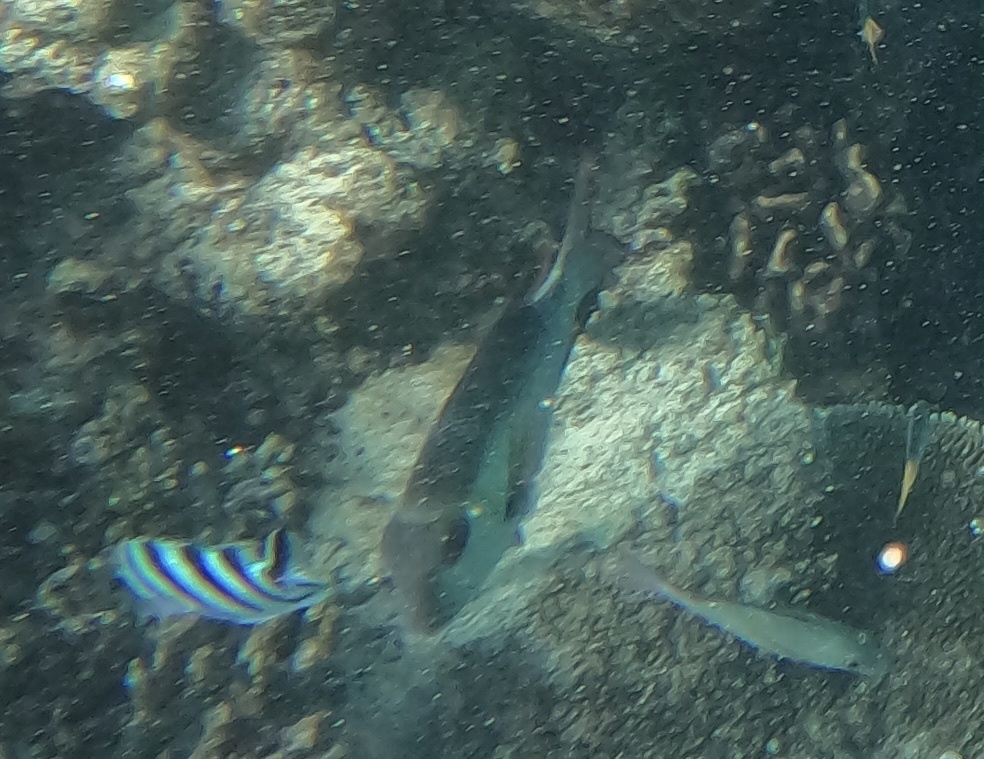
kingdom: Animalia
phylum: Chordata
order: Perciformes
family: Lethrinidae
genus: Monotaxis
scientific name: Monotaxis grandoculis
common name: Bigeye emperor
